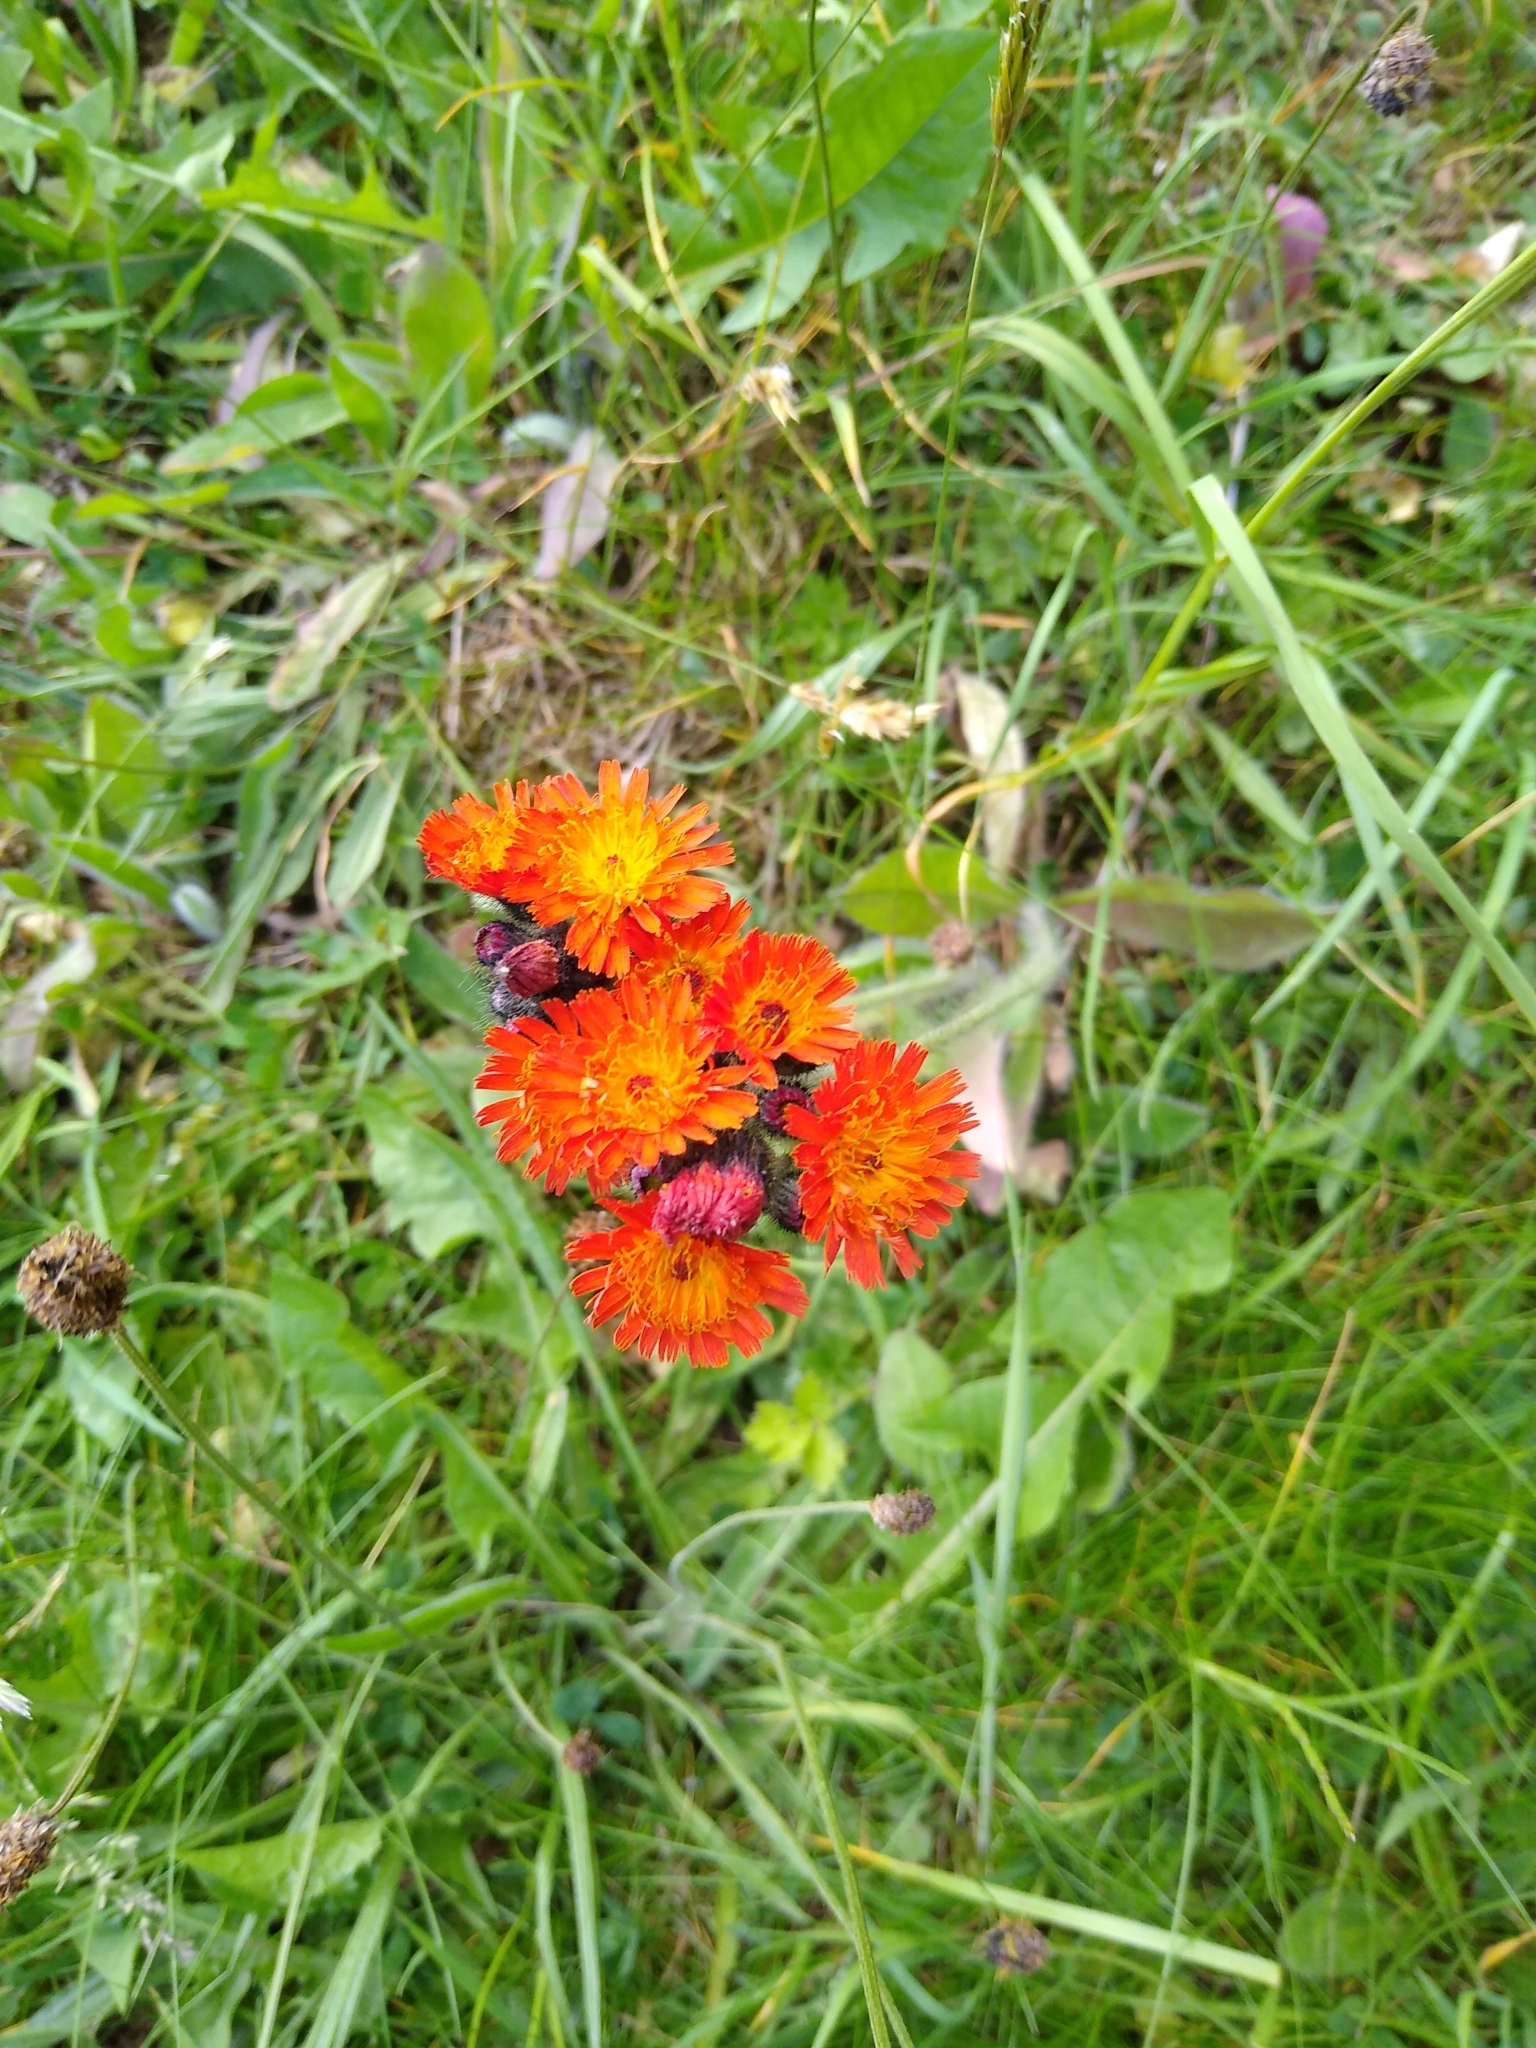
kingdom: Plantae
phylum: Tracheophyta
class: Magnoliopsida
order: Asterales
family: Asteraceae
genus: Pilosella
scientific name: Pilosella aurantiaca
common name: Fox-and-cubs
